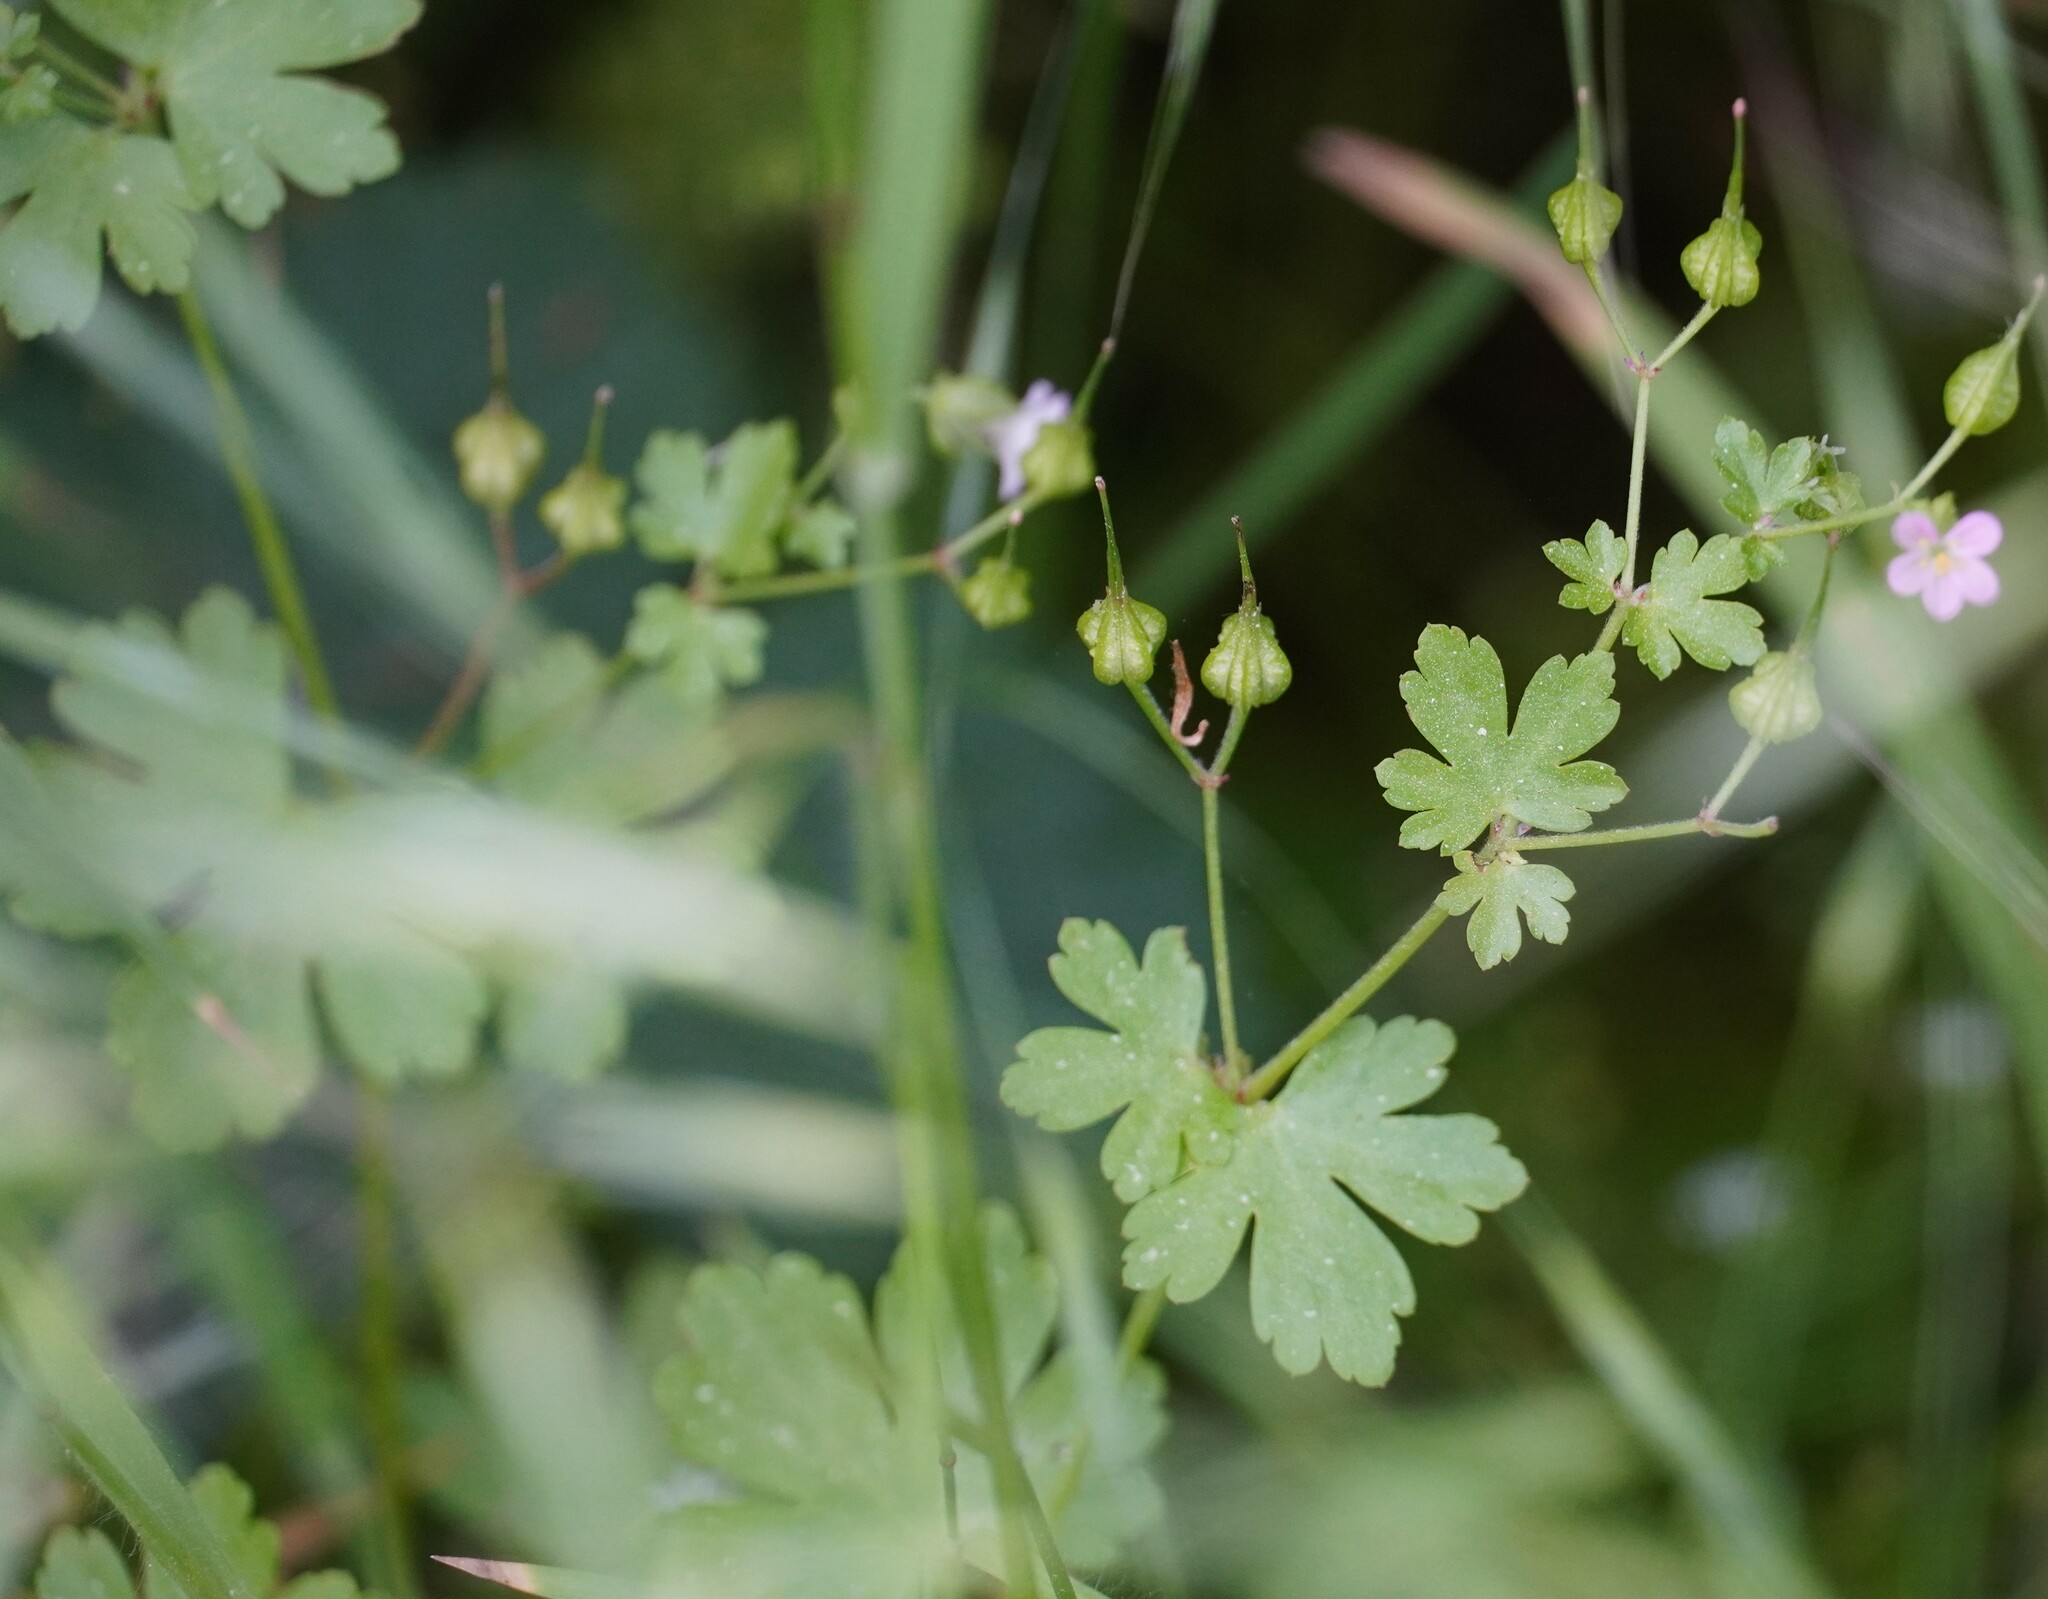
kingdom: Plantae
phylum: Tracheophyta
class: Magnoliopsida
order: Geraniales
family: Geraniaceae
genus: Geranium
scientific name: Geranium lucidum
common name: Shining crane's-bill
